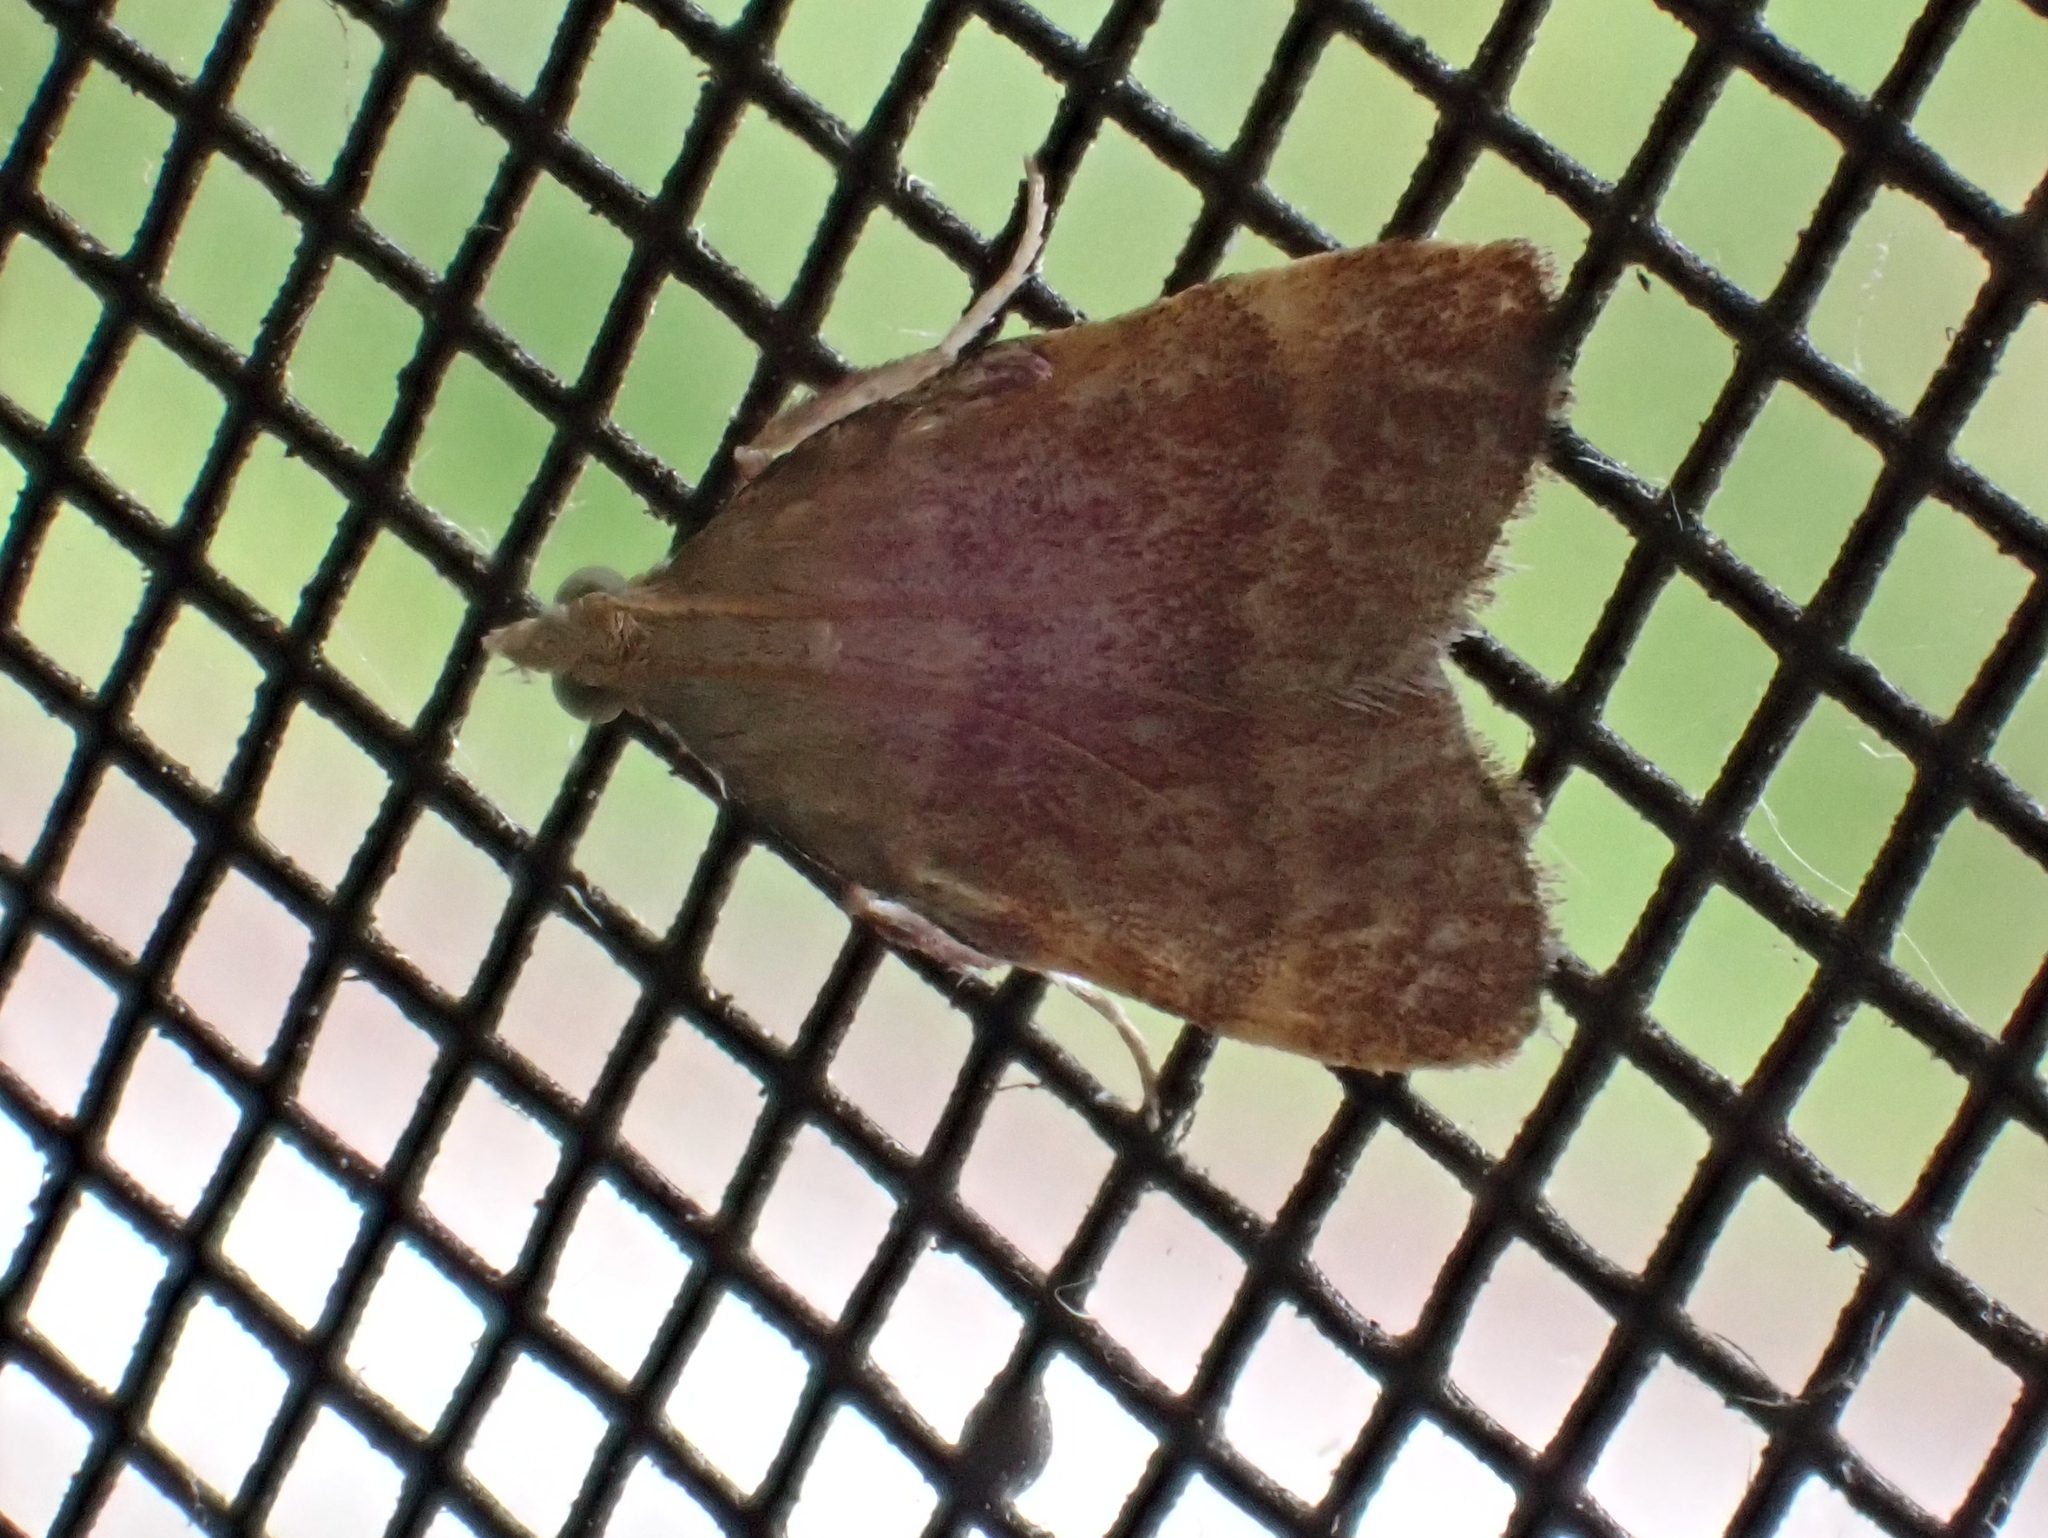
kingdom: Animalia
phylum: Arthropoda
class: Insecta
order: Lepidoptera
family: Pyralidae
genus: Condylolomia
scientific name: Condylolomia participialis
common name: Drab condylolomia moth
